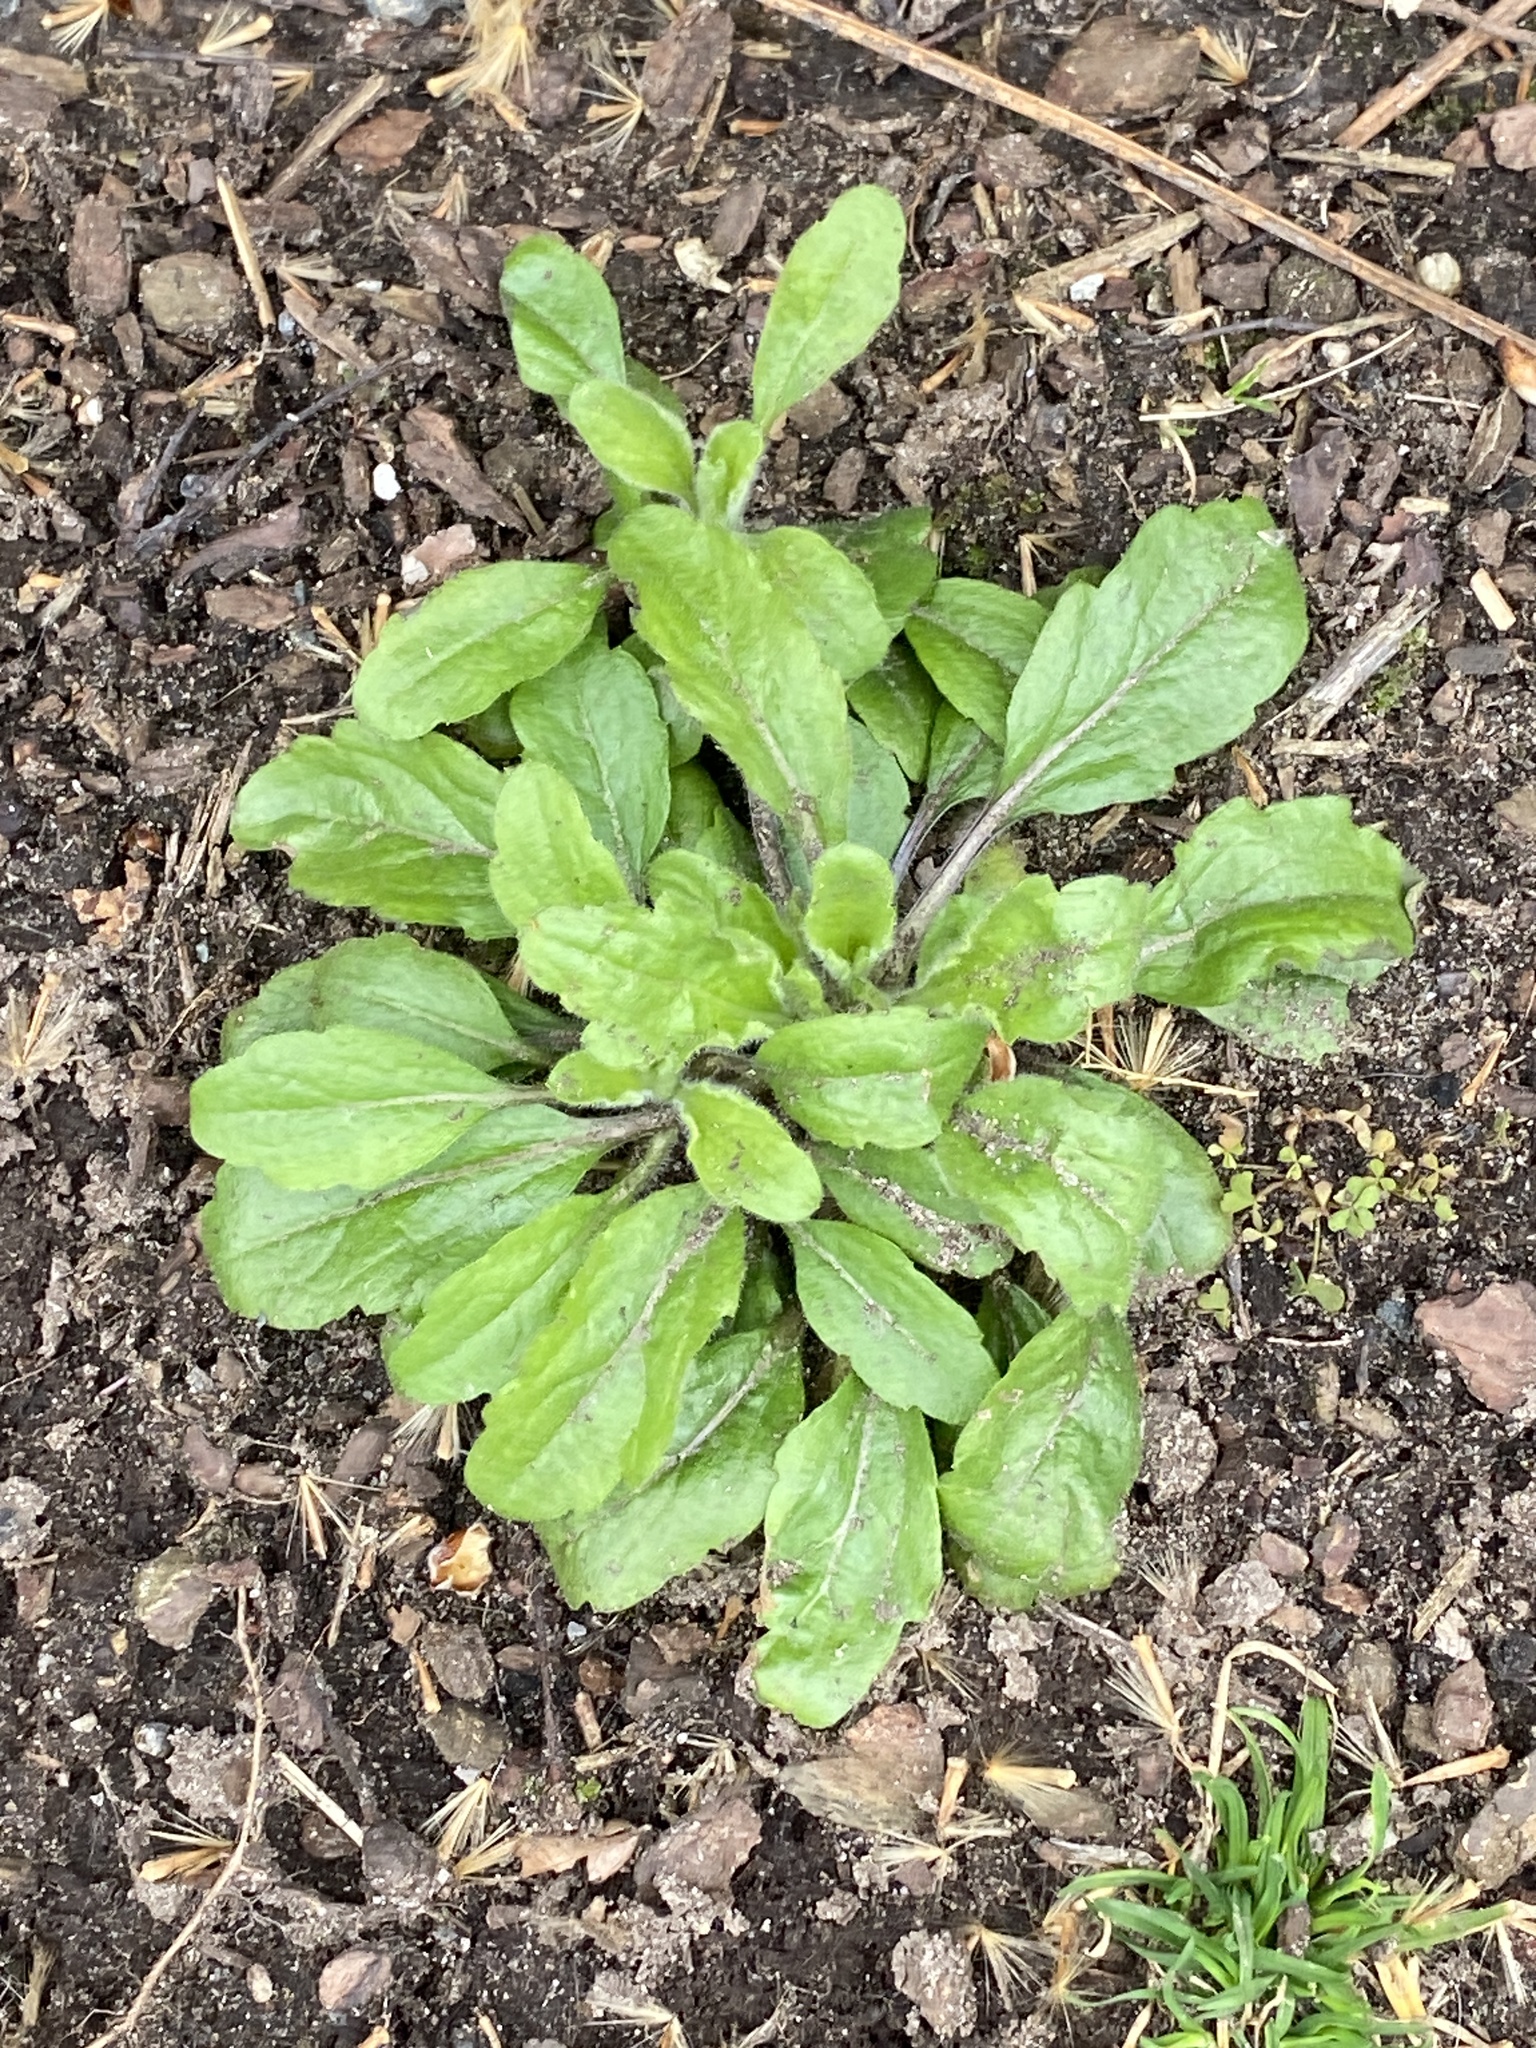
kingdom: Plantae
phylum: Tracheophyta
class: Magnoliopsida
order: Asterales
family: Asteraceae
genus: Erigeron
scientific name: Erigeron canadensis
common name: Canadian fleabane
